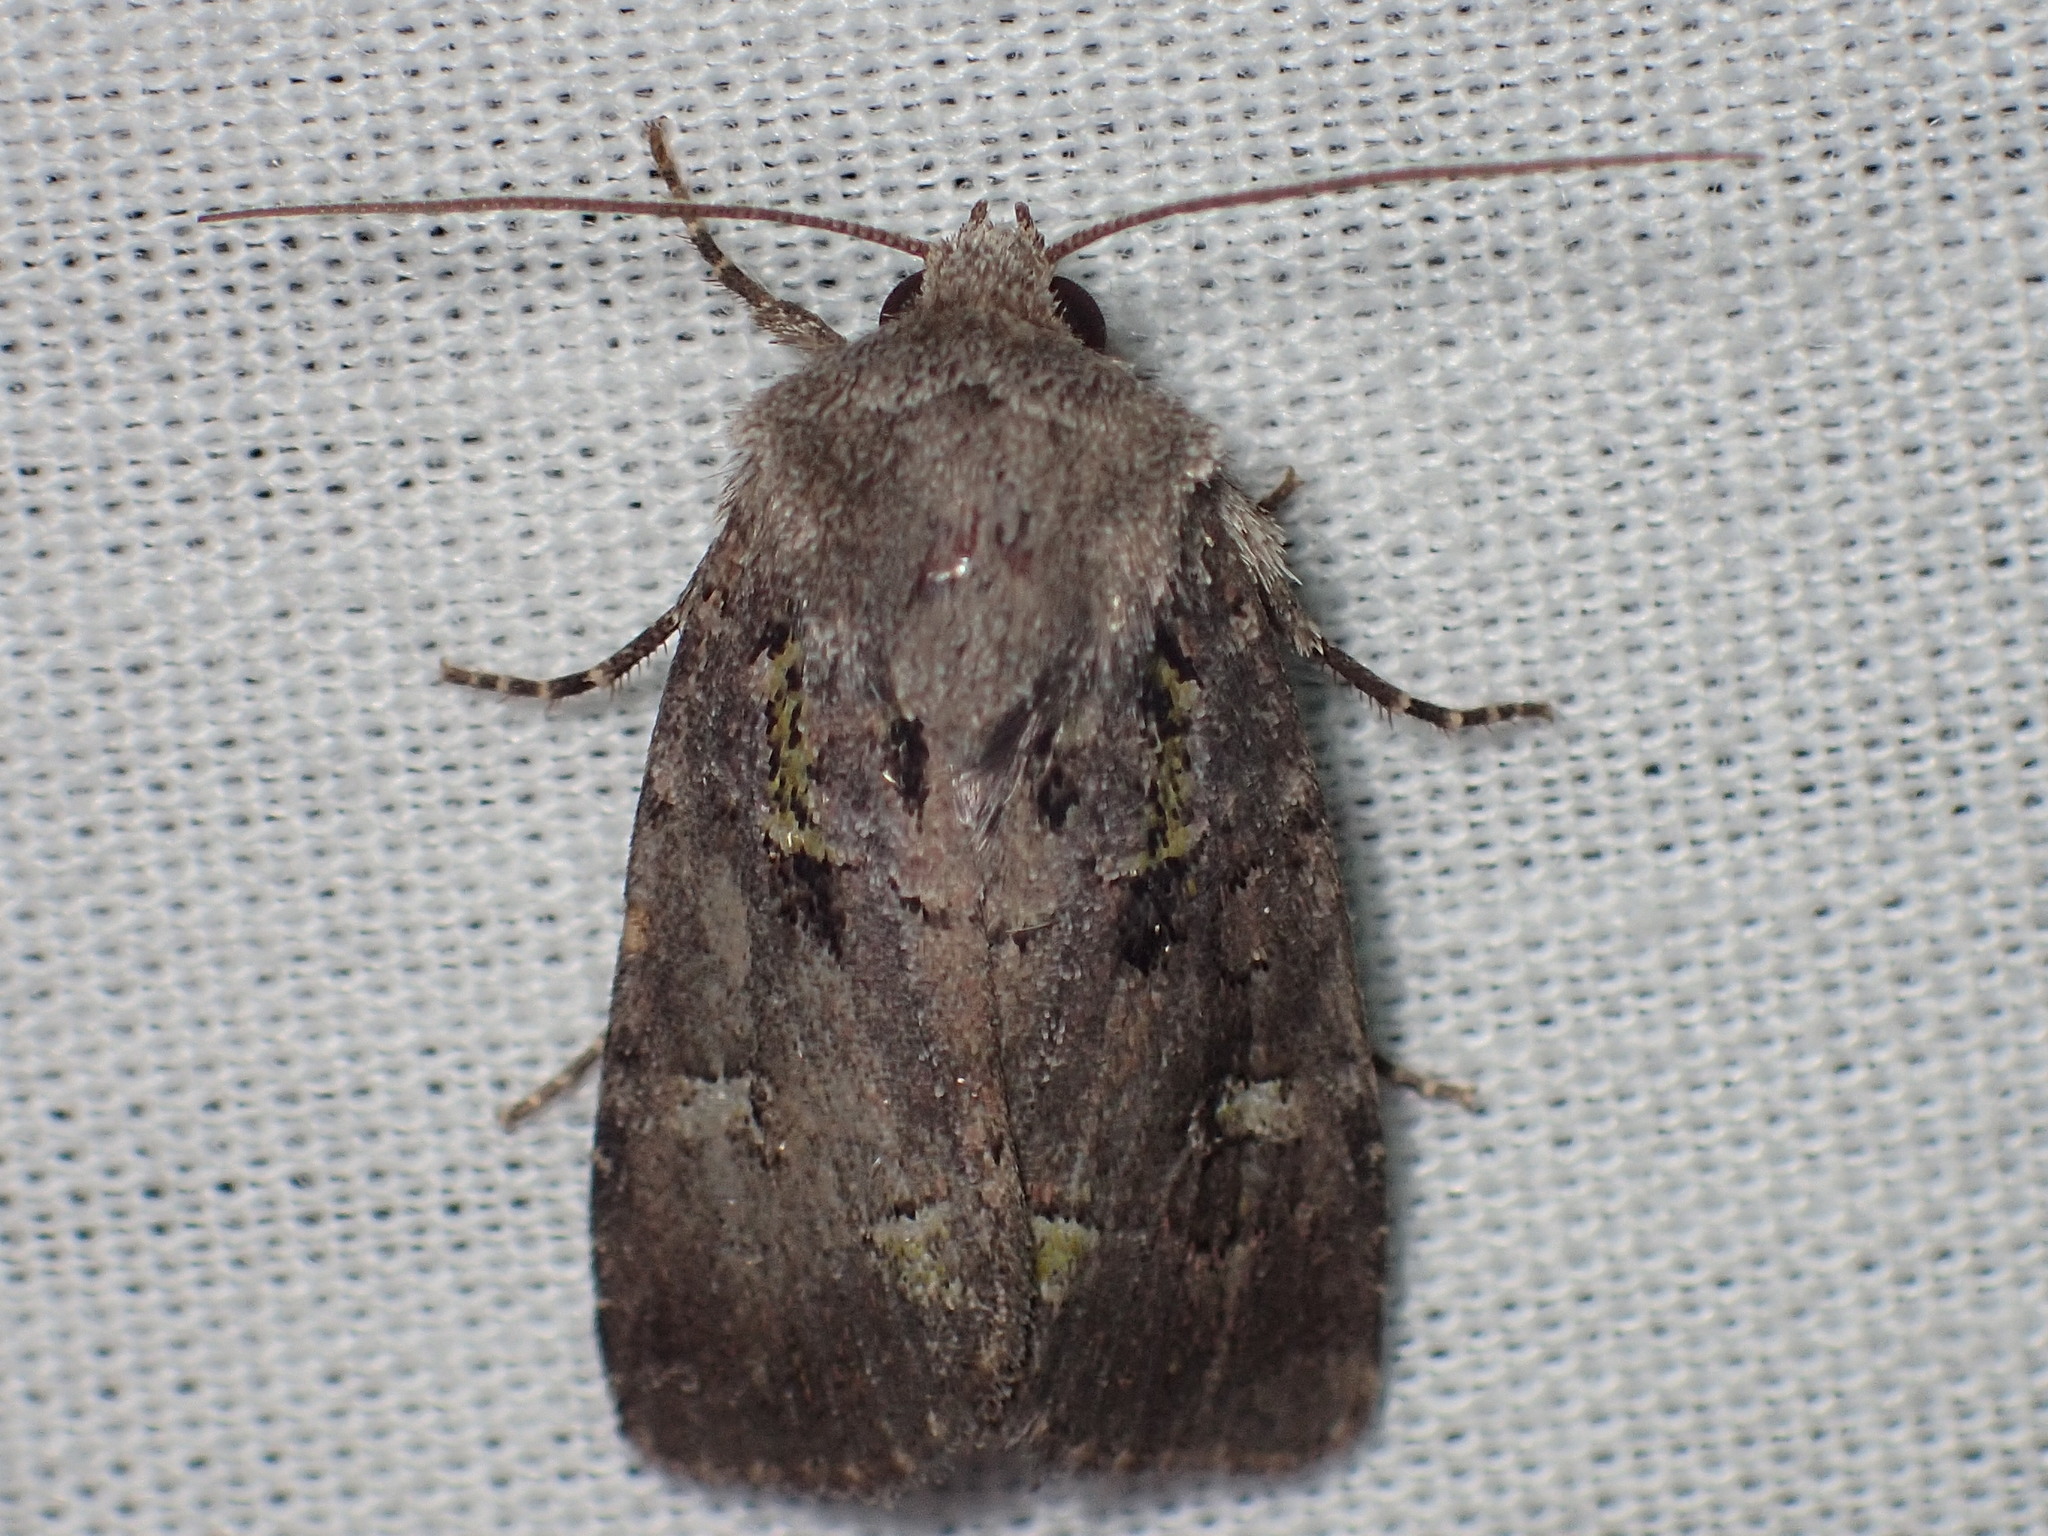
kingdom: Animalia
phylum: Arthropoda
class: Insecta
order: Lepidoptera
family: Noctuidae
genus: Lacinipolia
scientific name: Lacinipolia renigera
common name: Kidney-spotted minor
